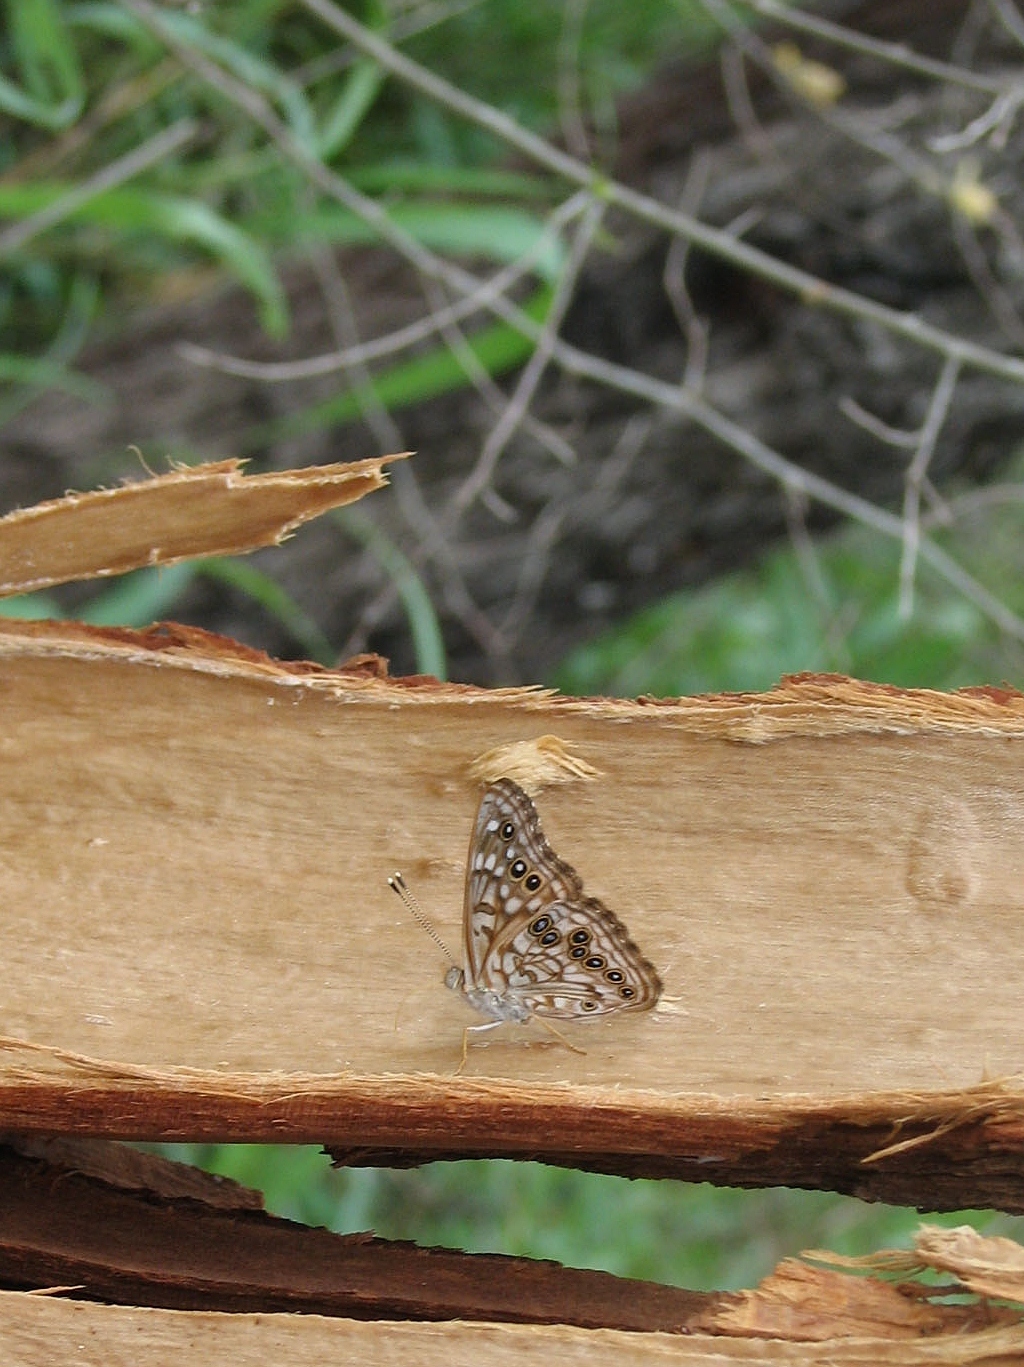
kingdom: Animalia
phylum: Arthropoda
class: Insecta
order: Lepidoptera
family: Nymphalidae
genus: Asterocampa
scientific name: Asterocampa celtis
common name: Hackberry emperor
